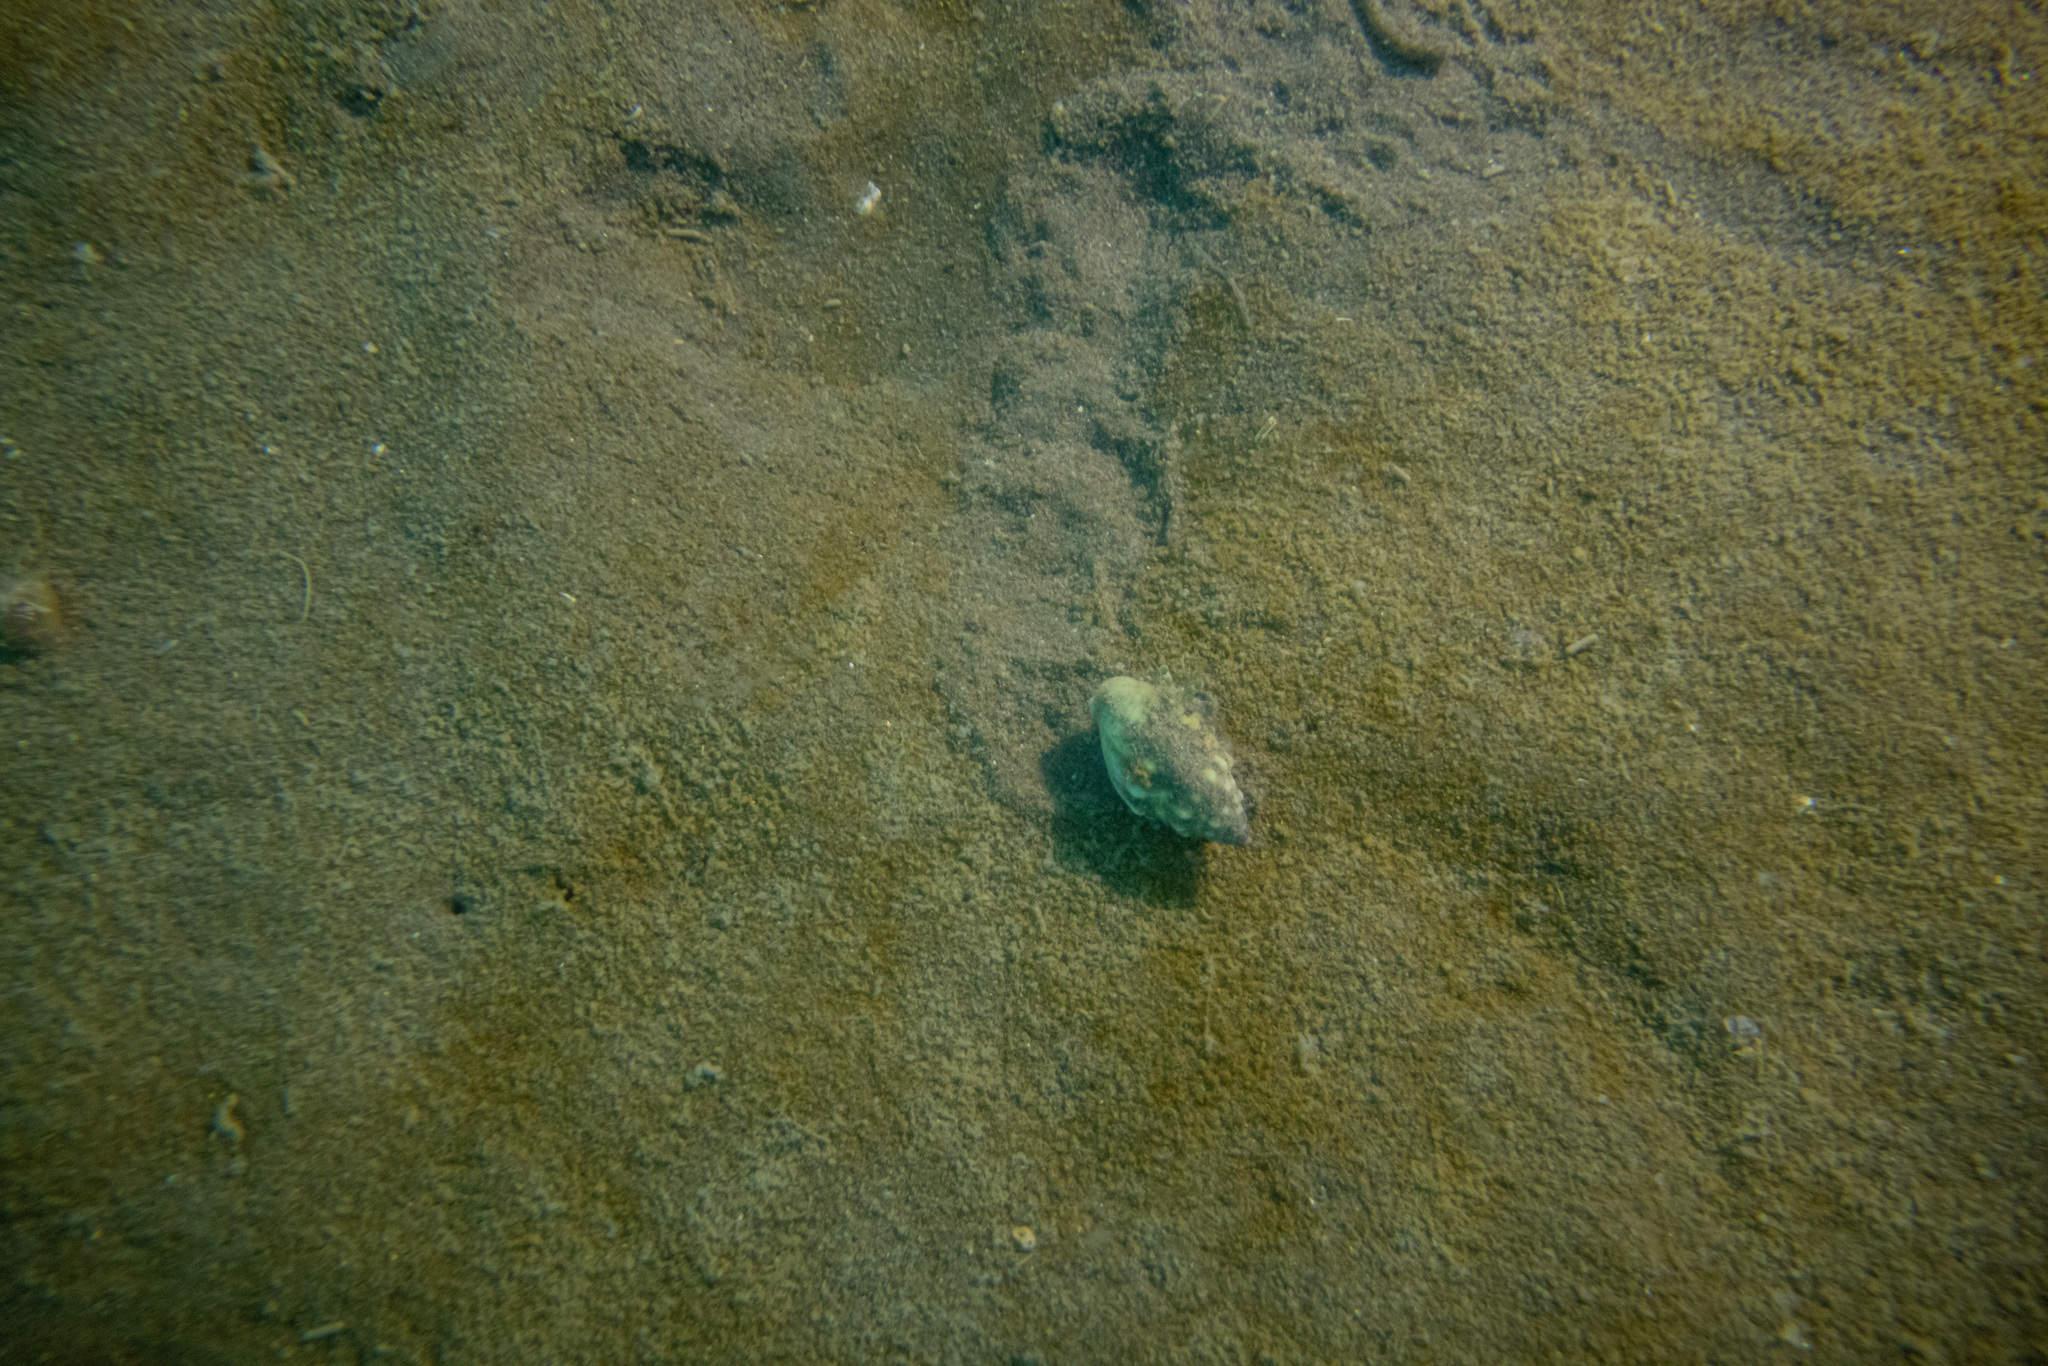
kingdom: Animalia
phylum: Mollusca
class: Gastropoda
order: Neogastropoda
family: Cominellidae
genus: Cominella
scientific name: Cominella glandiformis
